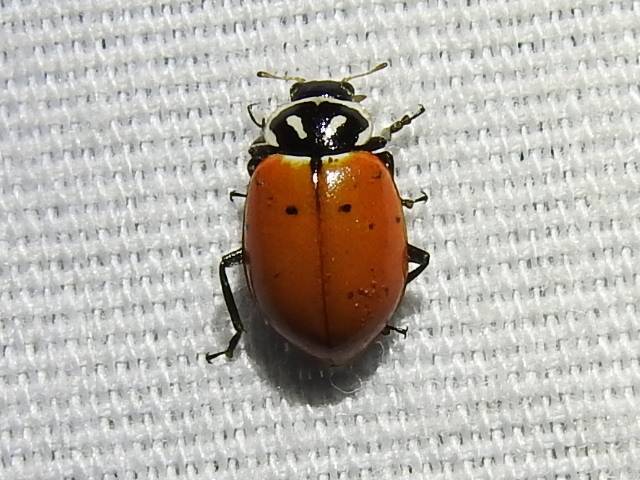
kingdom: Animalia
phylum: Arthropoda
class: Insecta
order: Coleoptera
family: Coccinellidae
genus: Hippodamia
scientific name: Hippodamia convergens
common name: Convergent lady beetle
